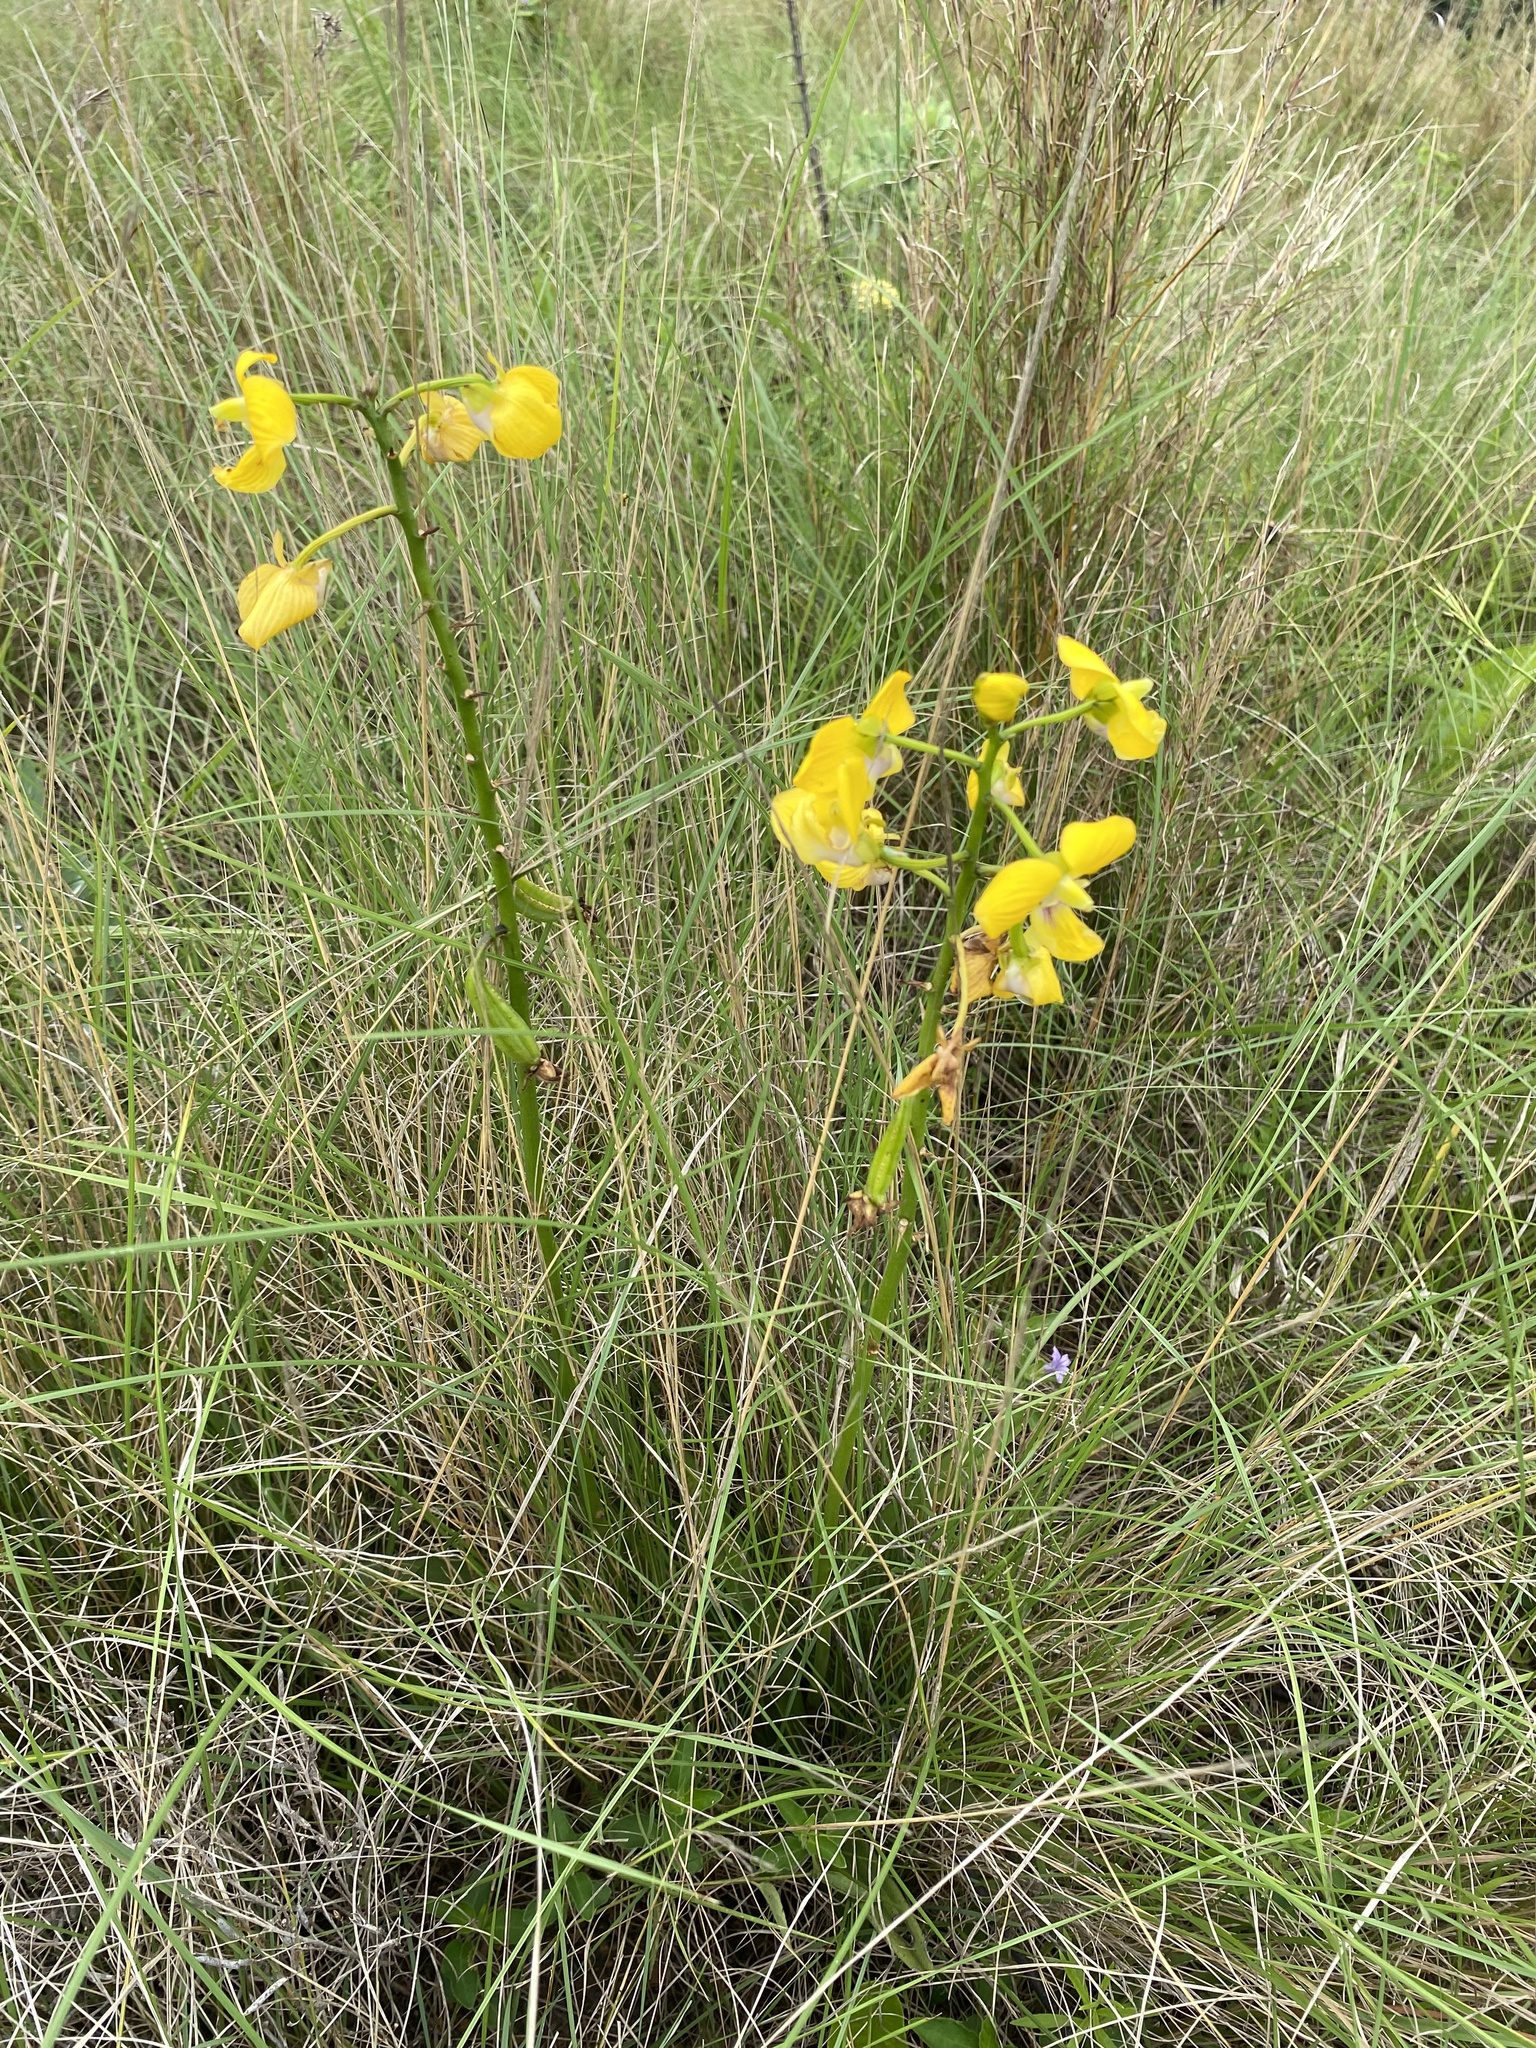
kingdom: Plantae
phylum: Tracheophyta
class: Liliopsida
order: Asparagales
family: Orchidaceae
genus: Eulophia
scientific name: Eulophia speciosa
